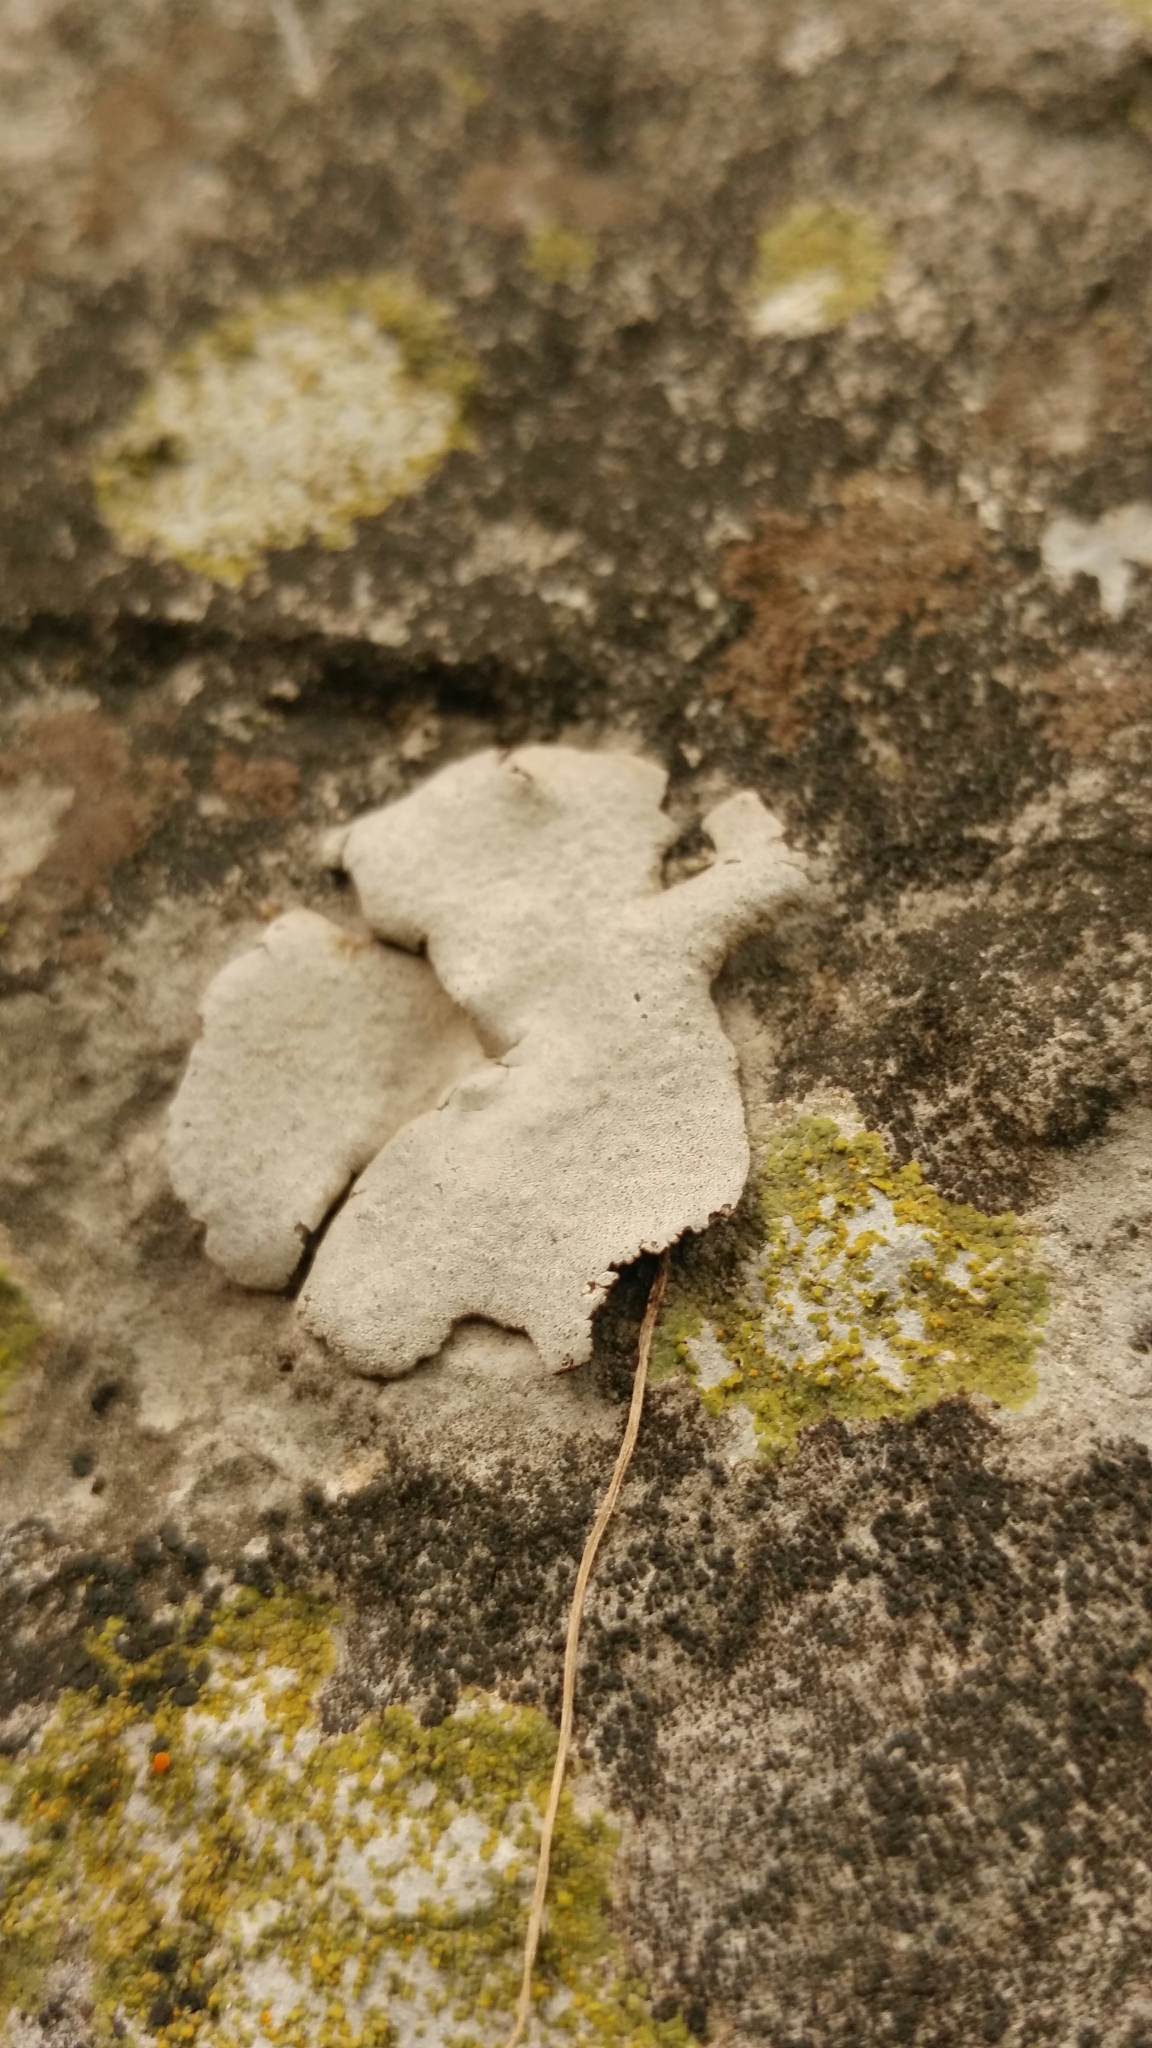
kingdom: Fungi
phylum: Ascomycota
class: Eurotiomycetes
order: Verrucariales
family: Verrucariaceae
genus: Dermatocarpon
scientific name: Dermatocarpon miniatum
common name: Leather lichen
